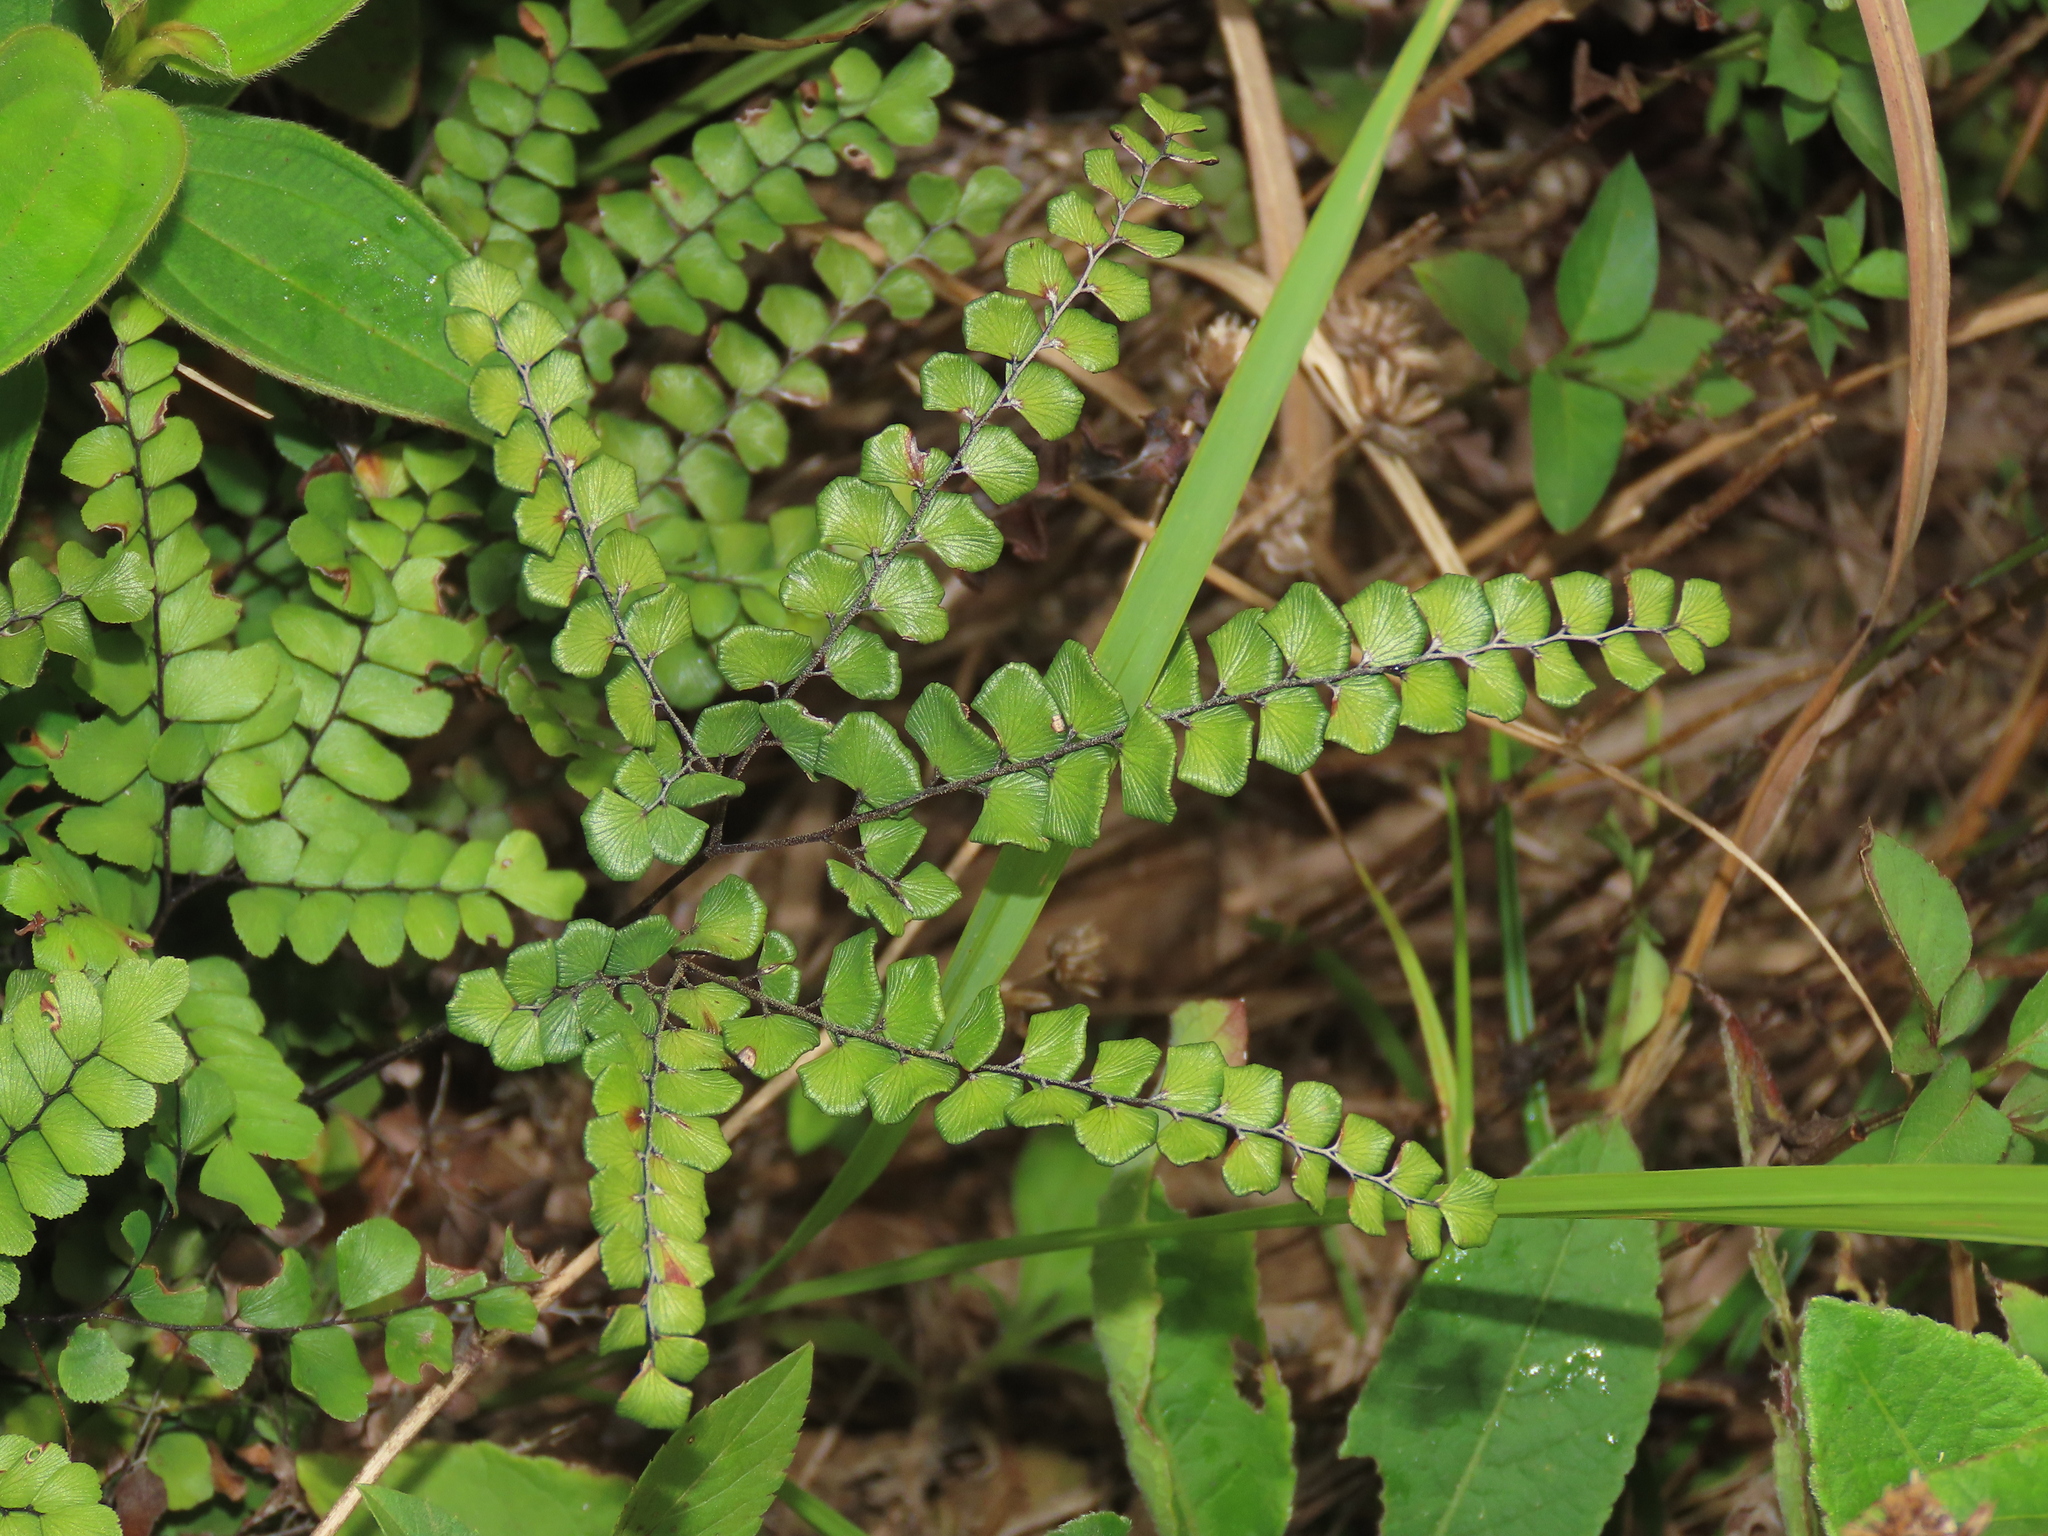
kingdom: Plantae
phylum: Tracheophyta
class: Polypodiopsida
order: Polypodiales
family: Pteridaceae
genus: Adiantum
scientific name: Adiantum flabellulatum
